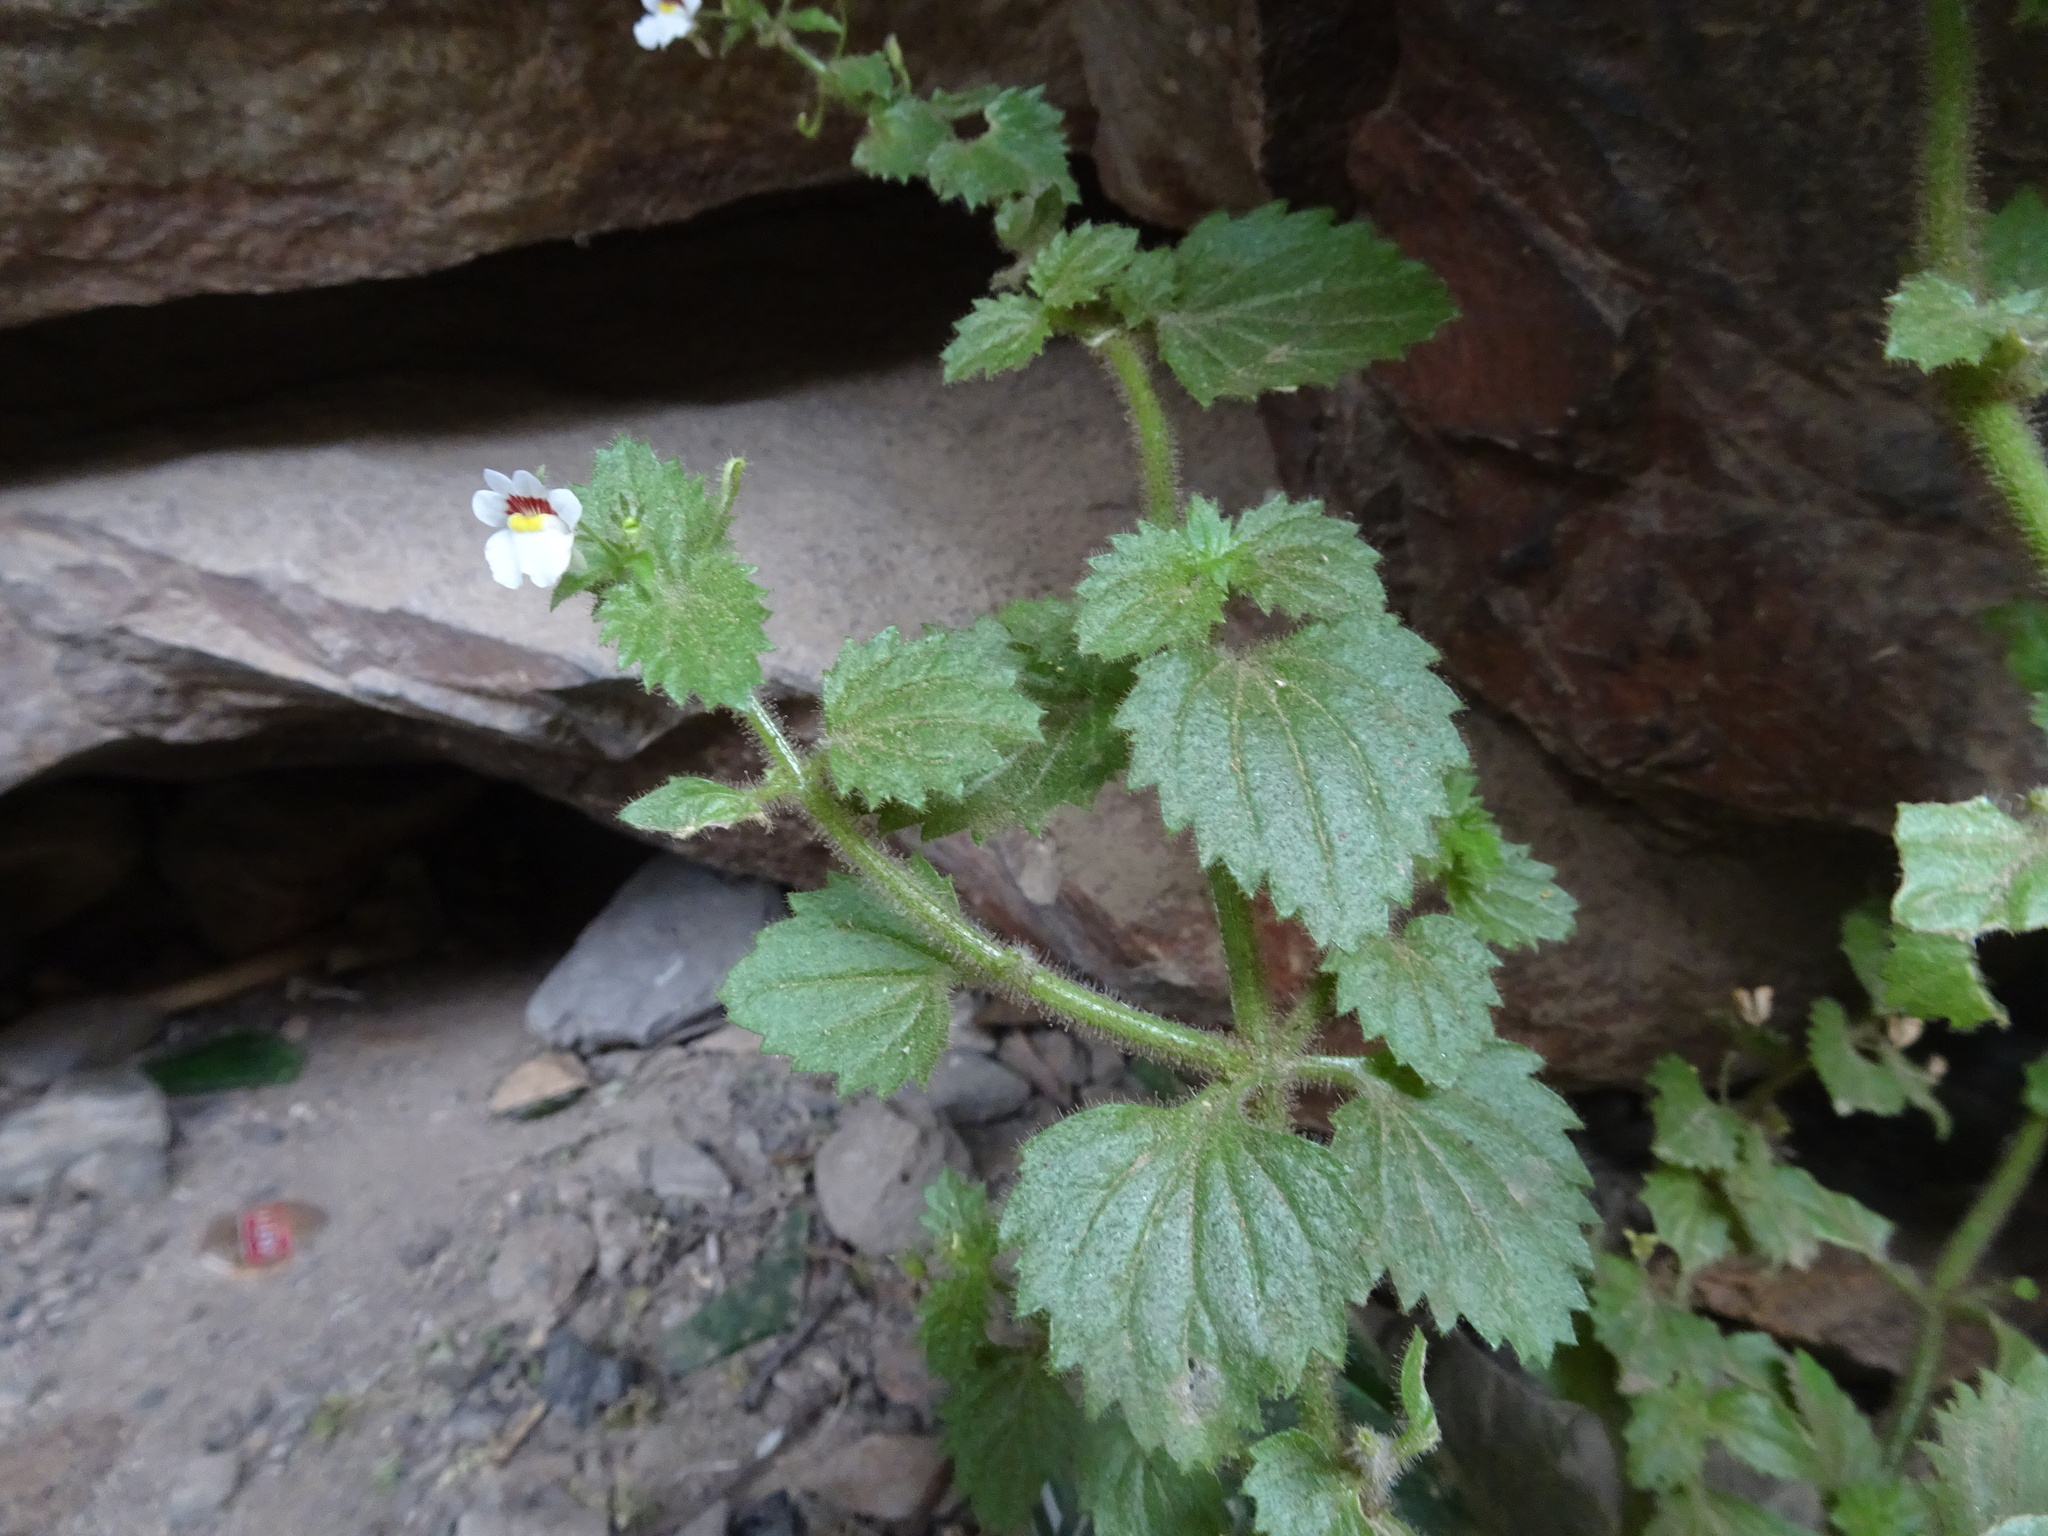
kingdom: Plantae
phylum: Tracheophyta
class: Magnoliopsida
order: Lamiales
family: Scrophulariaceae
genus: Nemesia
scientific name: Nemesia deflexa
